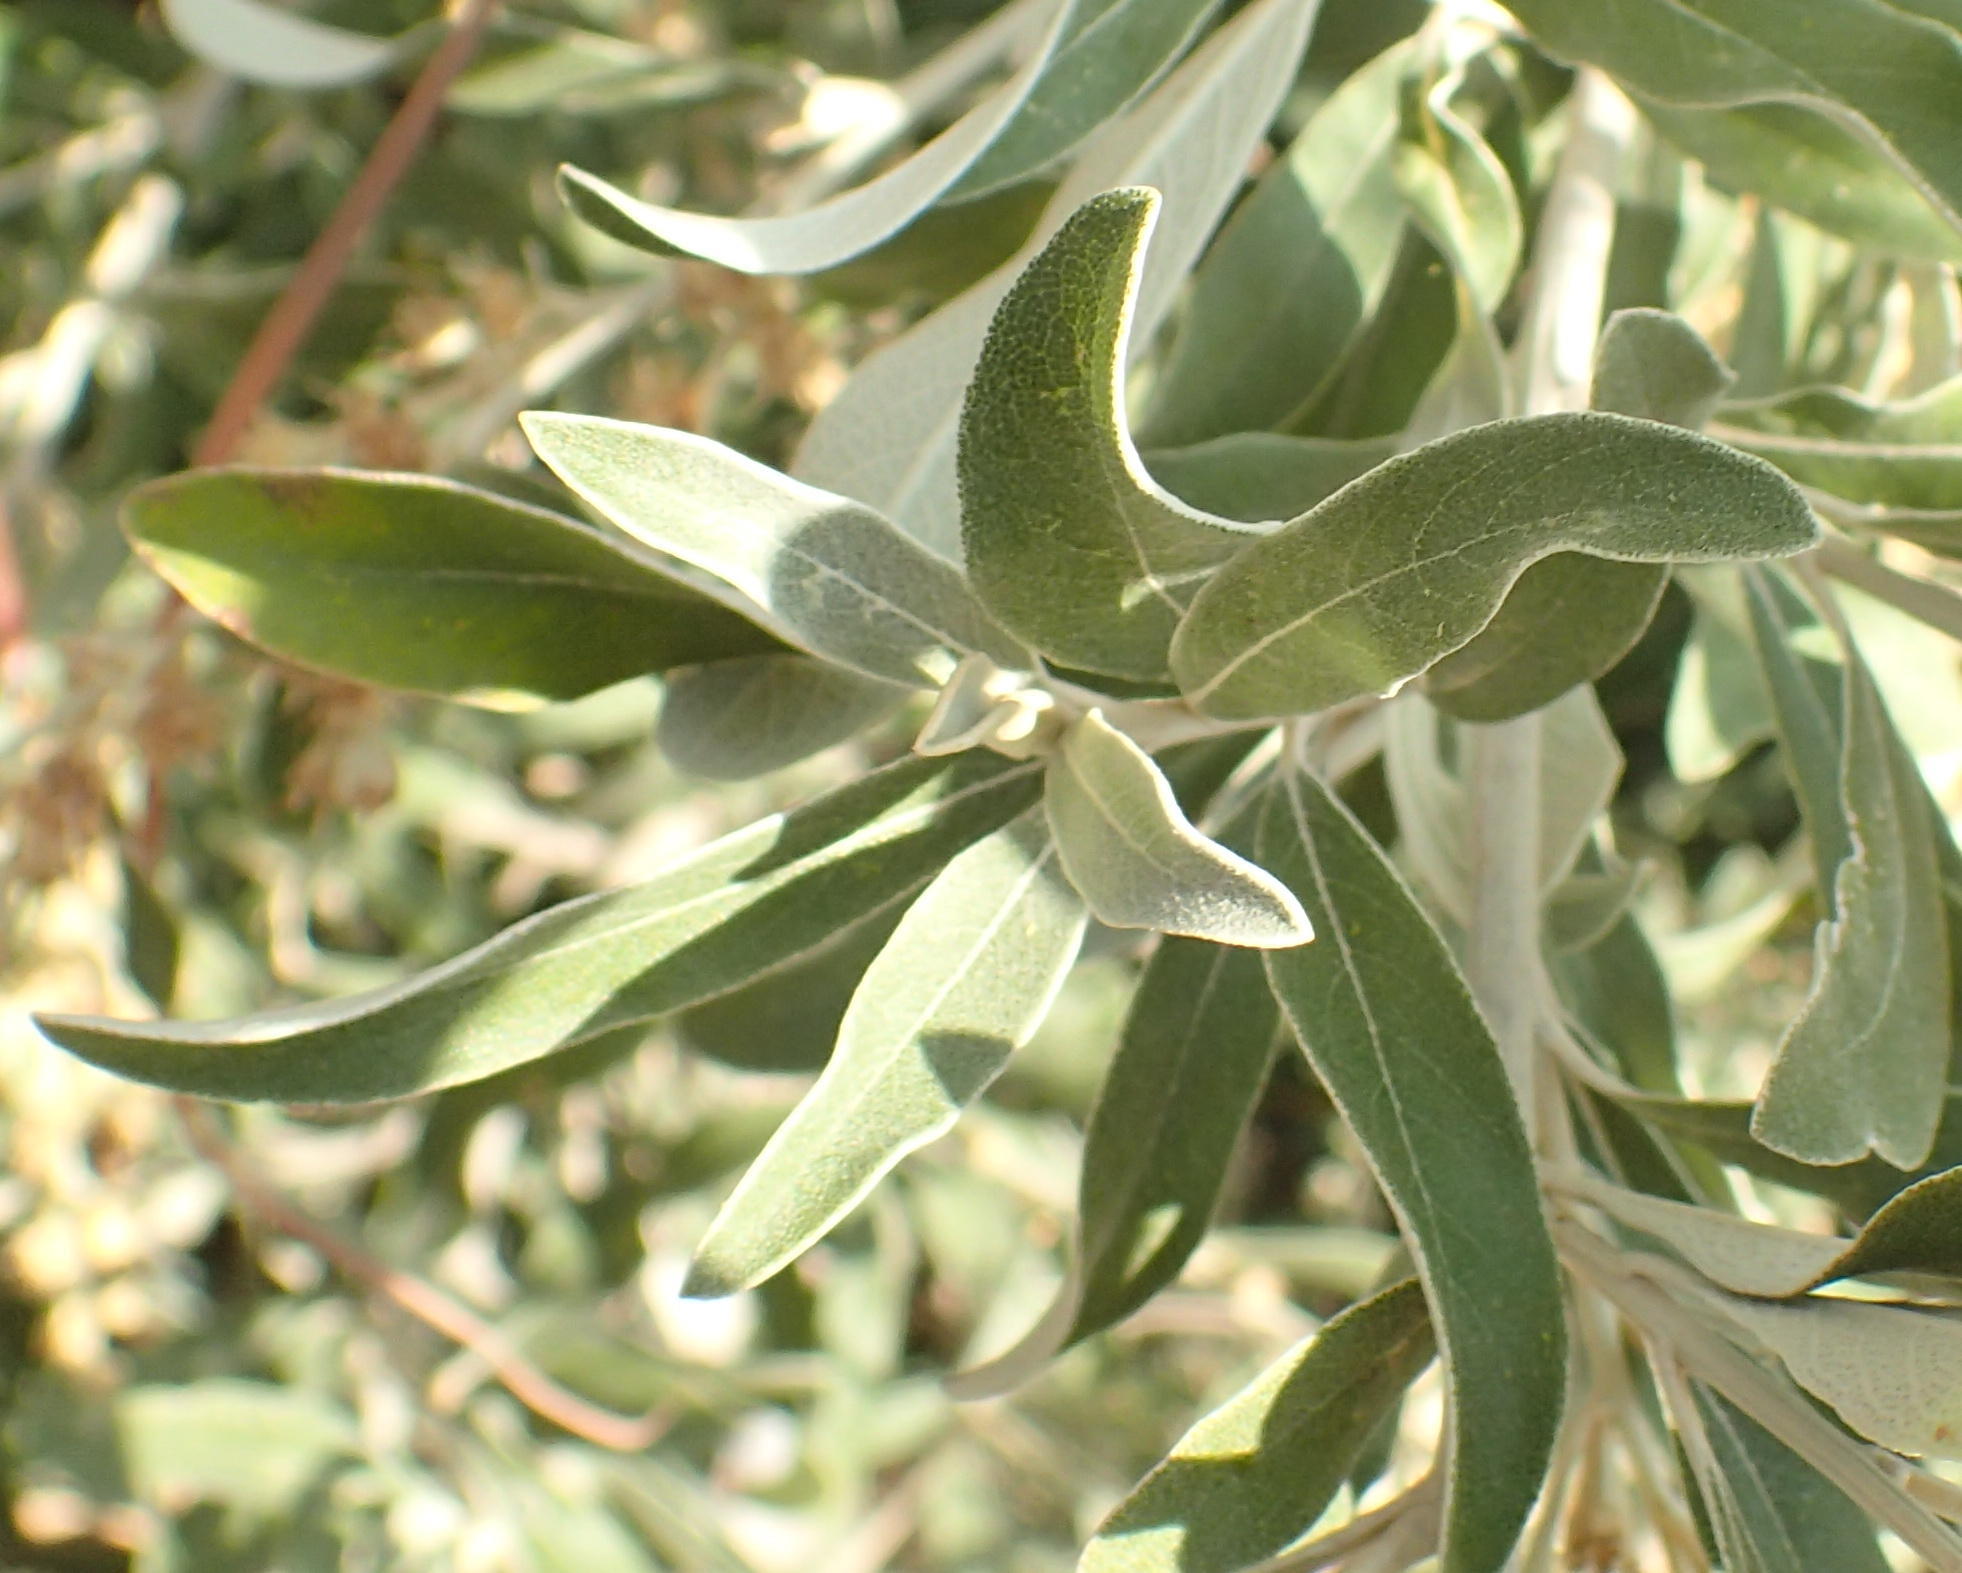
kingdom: Plantae
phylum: Tracheophyta
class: Magnoliopsida
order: Asterales
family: Asteraceae
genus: Tarchonanthus
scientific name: Tarchonanthus camphoratus
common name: Camphorwood
